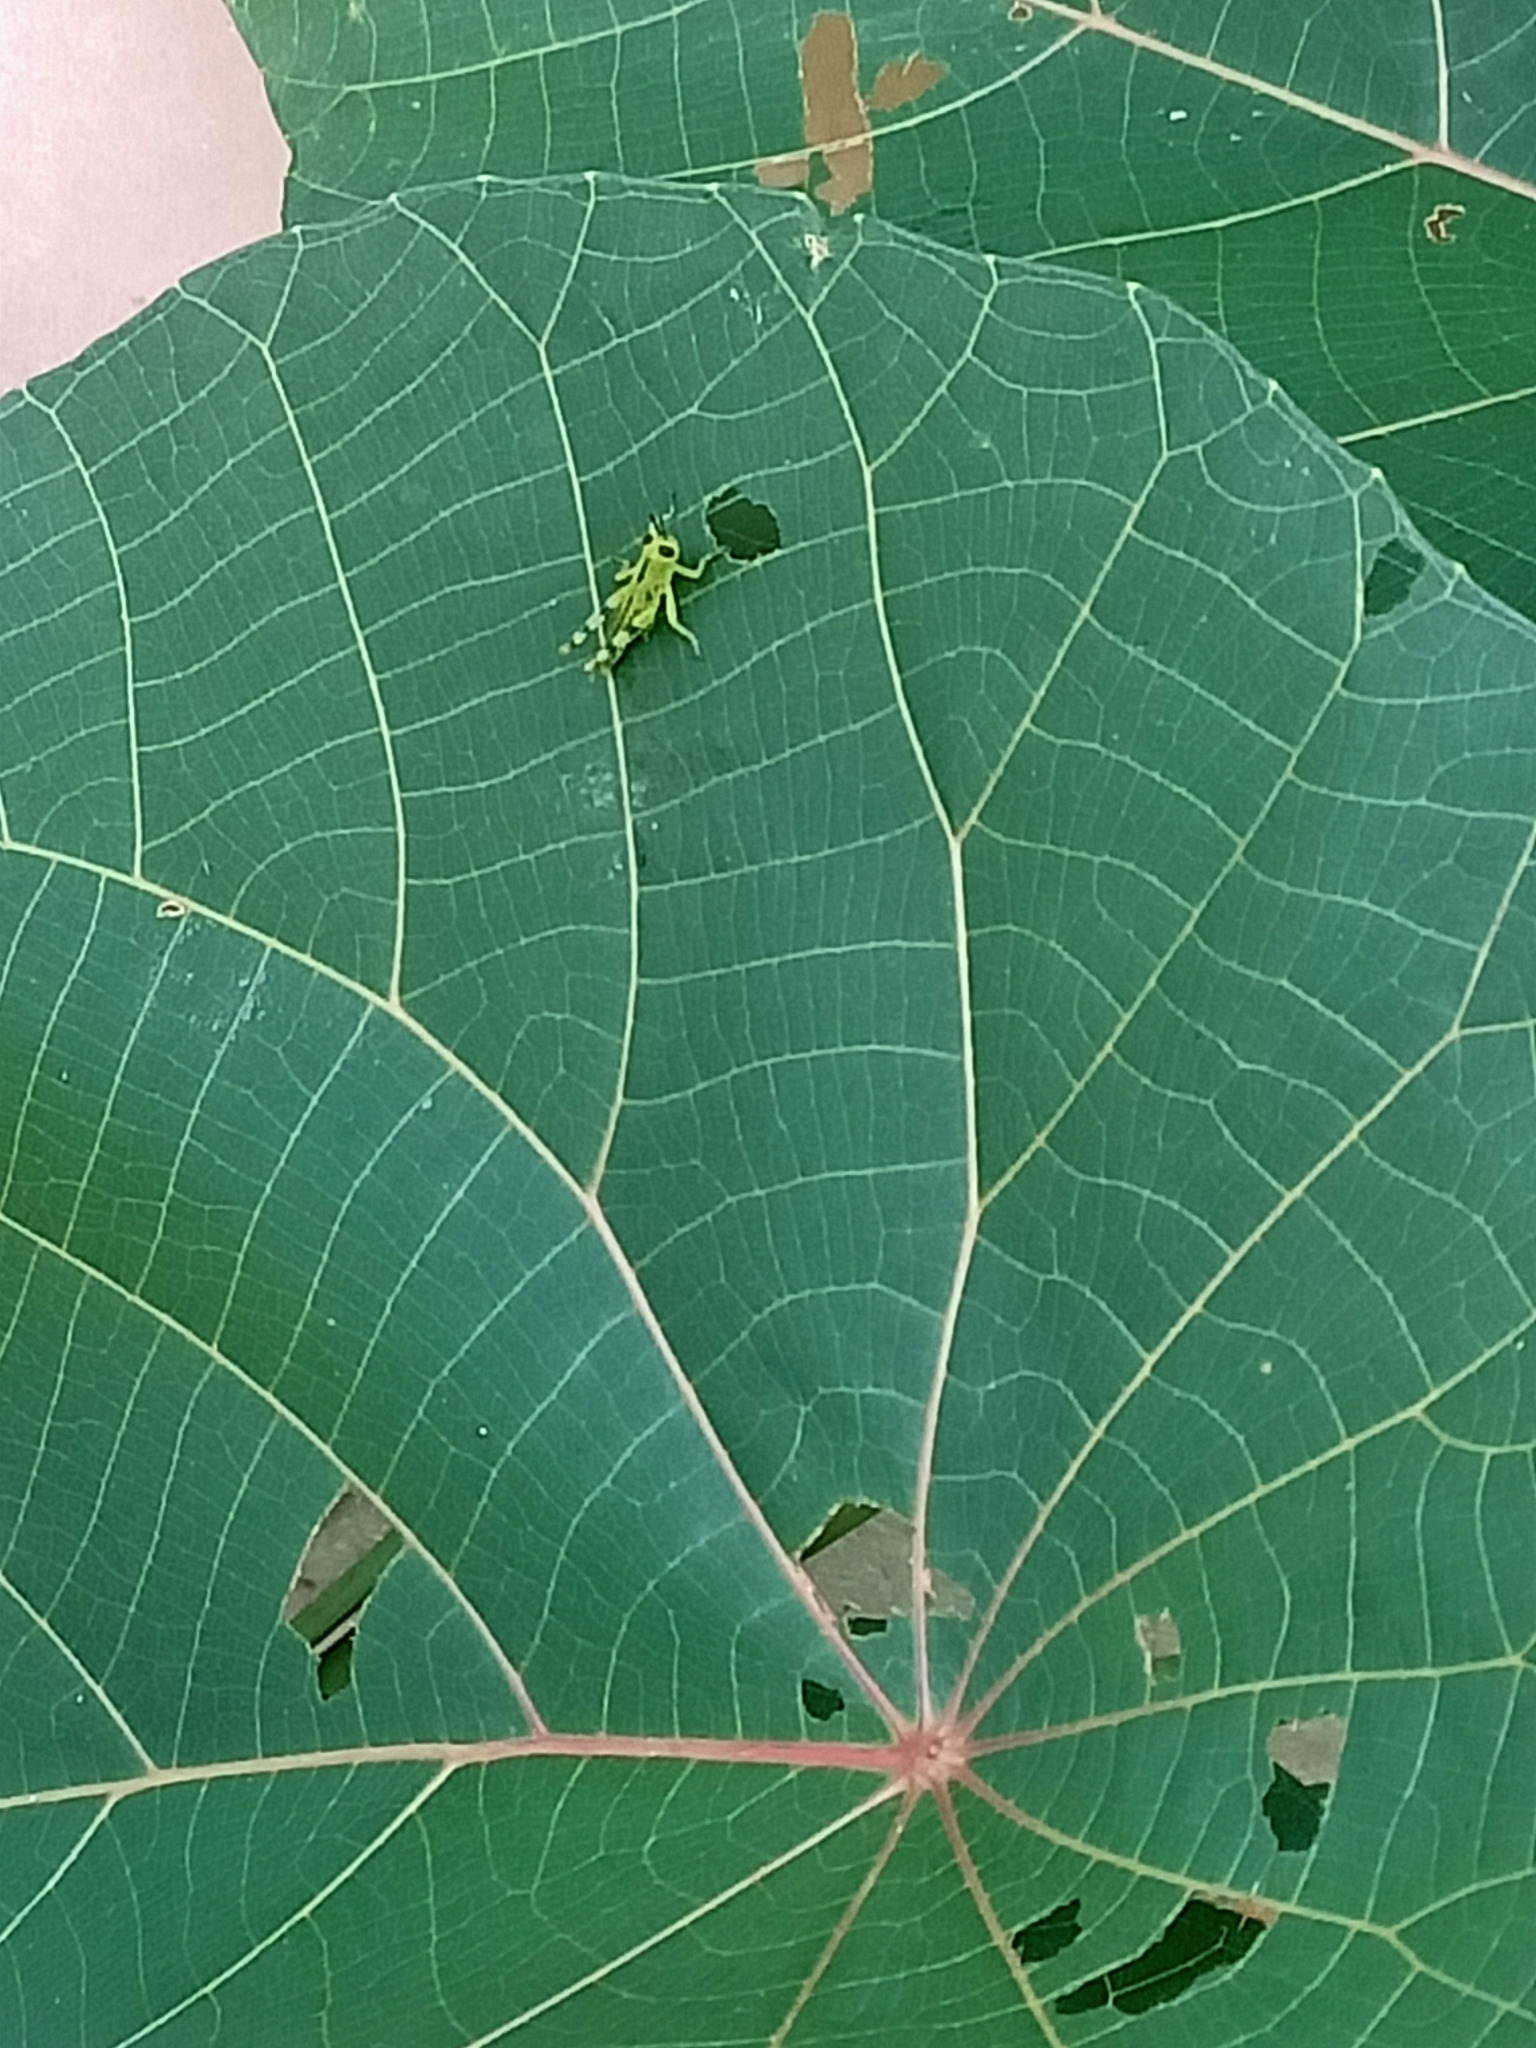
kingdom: Animalia
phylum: Arthropoda
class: Insecta
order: Orthoptera
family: Acrididae
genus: Valanga
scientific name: Valanga irregularis
